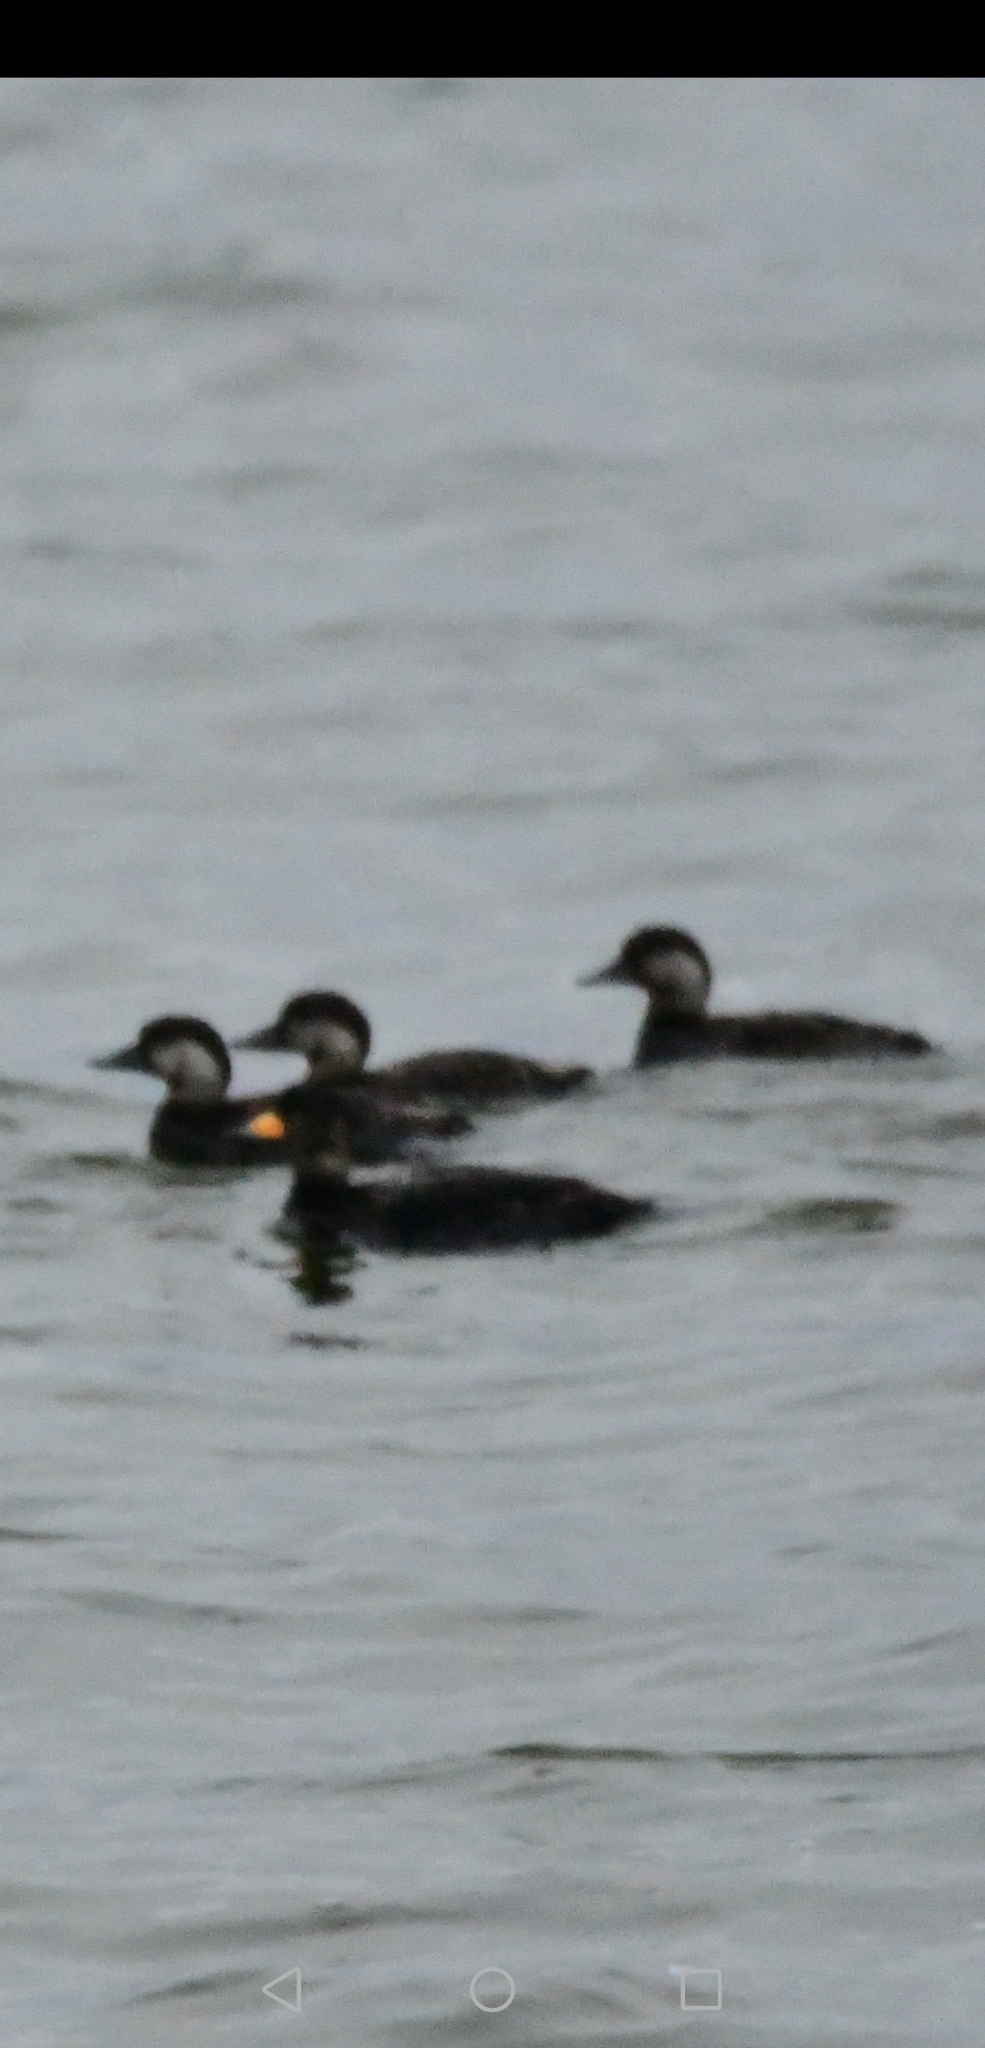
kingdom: Animalia
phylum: Chordata
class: Aves
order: Anseriformes
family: Anatidae
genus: Melanitta
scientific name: Melanitta americana
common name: Black scoter
